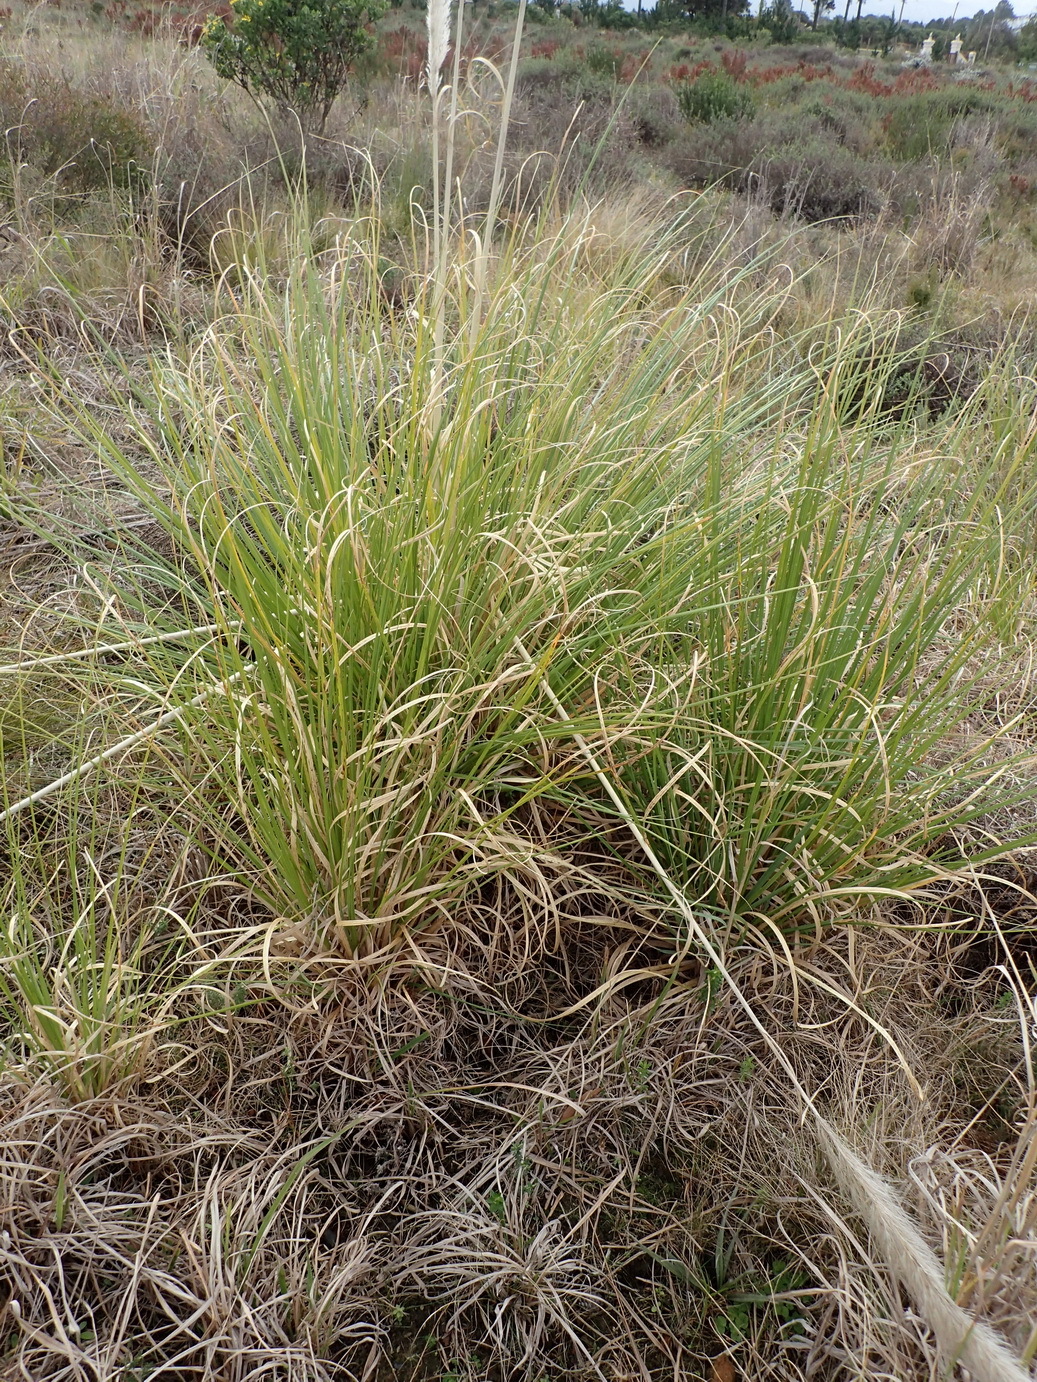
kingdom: Plantae
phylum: Tracheophyta
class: Liliopsida
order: Poales
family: Poaceae
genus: Cortaderia
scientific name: Cortaderia selloana
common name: Uruguayan pampas grass
